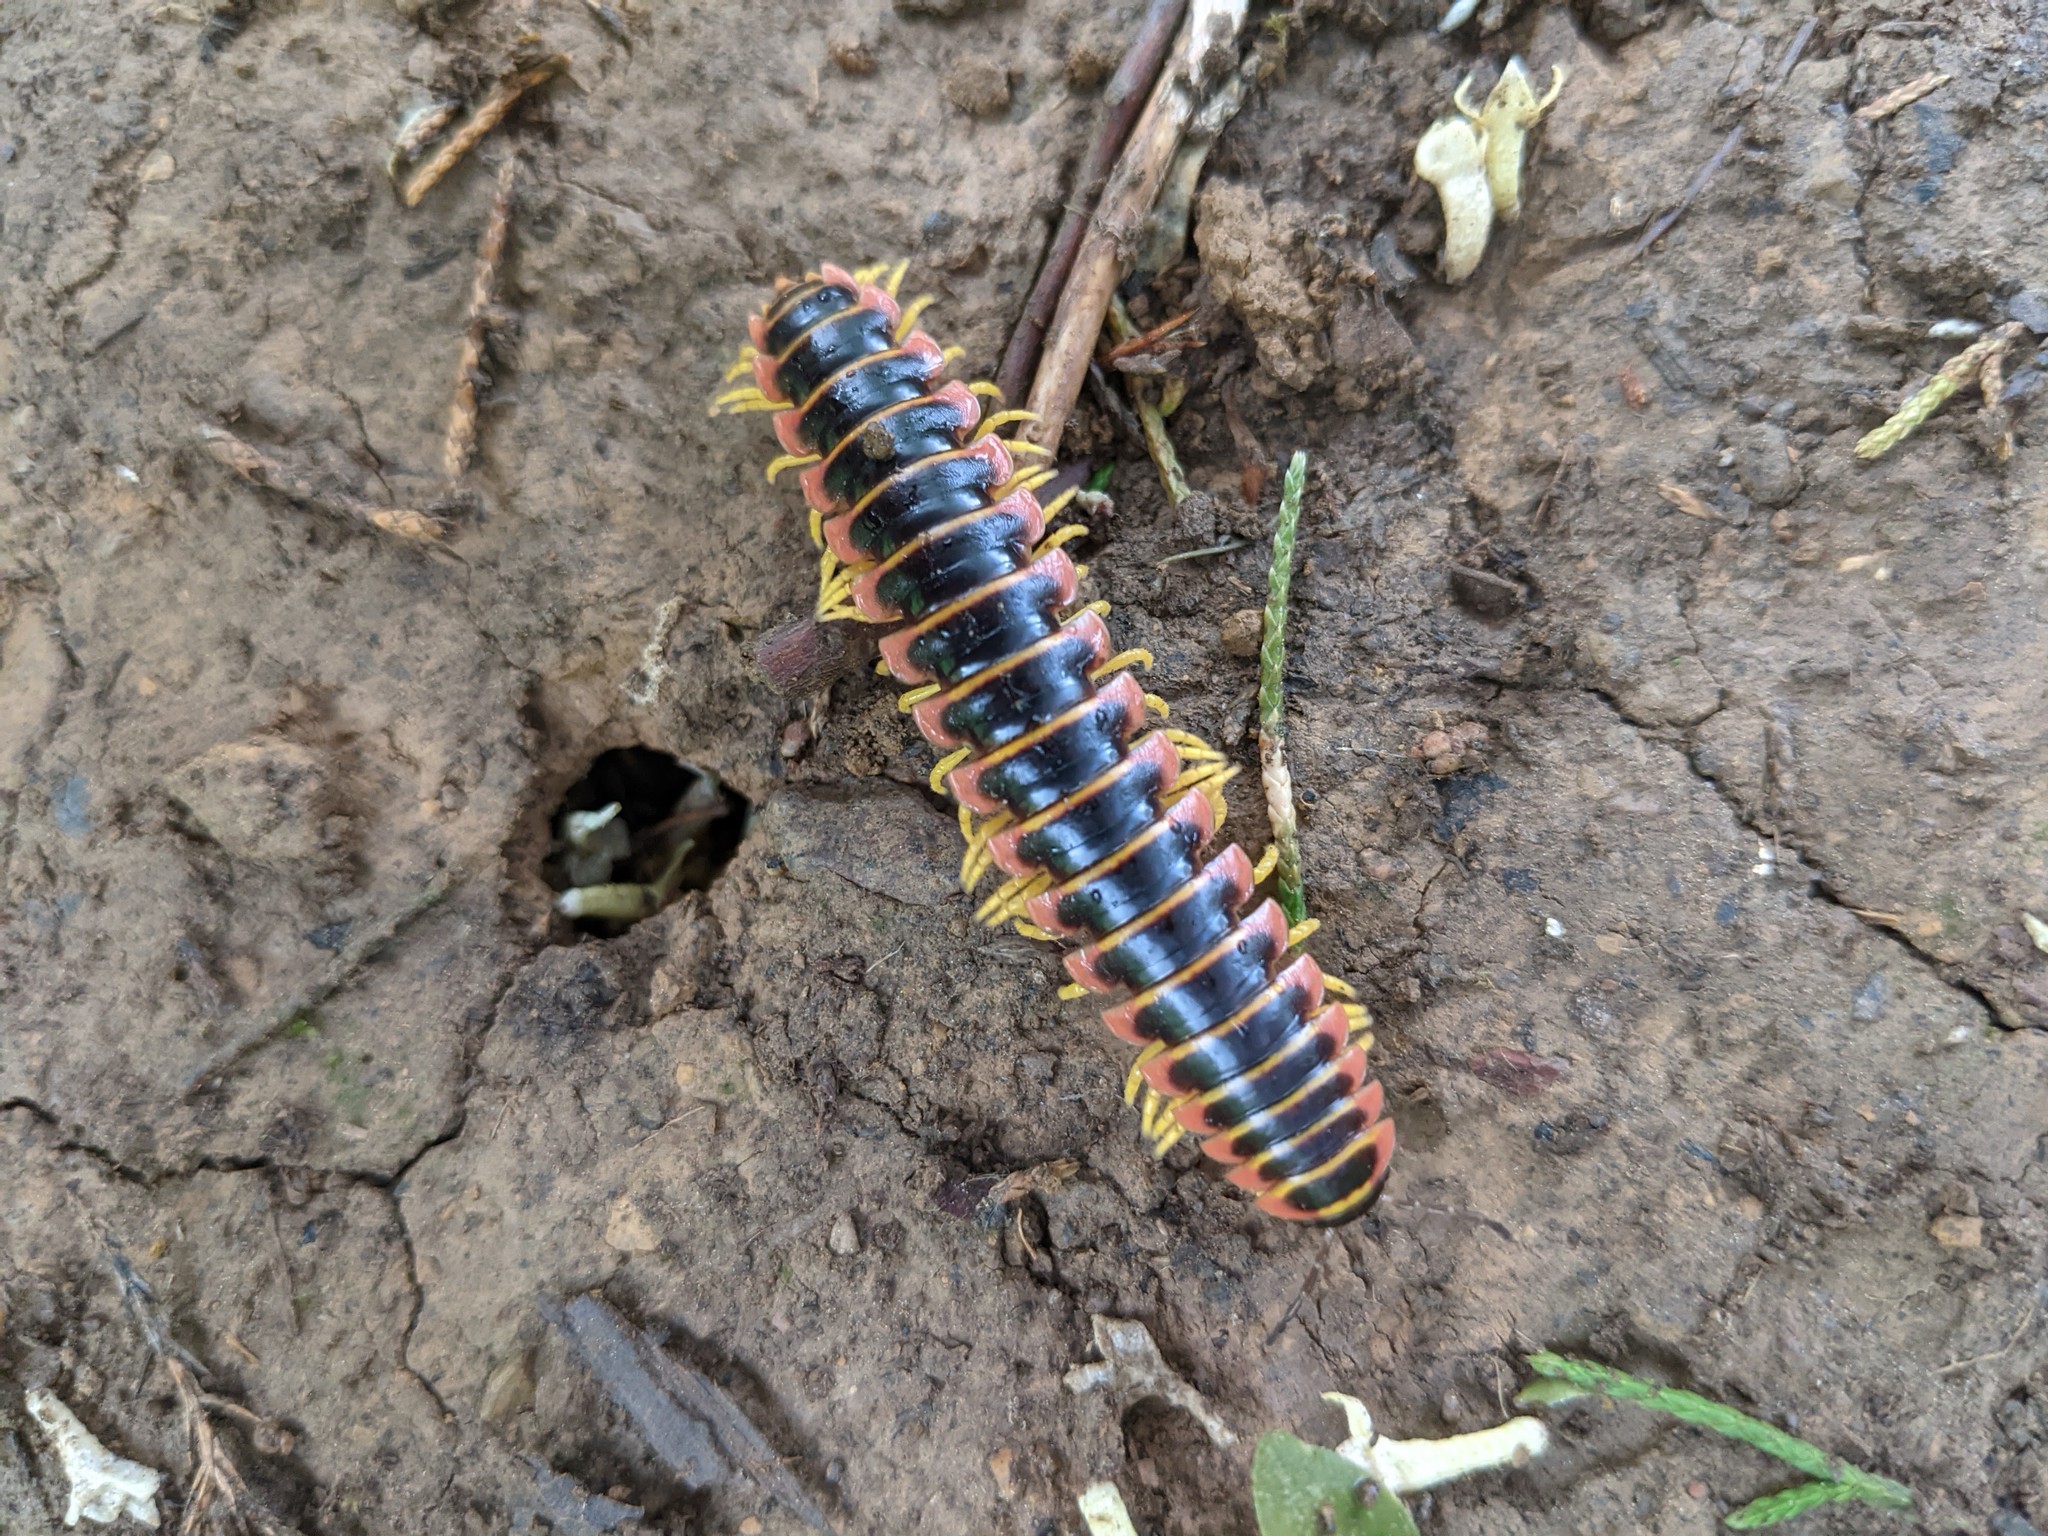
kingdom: Animalia
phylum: Arthropoda
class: Diplopoda
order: Polydesmida
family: Xystodesmidae
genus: Apheloria
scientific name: Apheloria virginiensis
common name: Black-and-gold flat millipede
